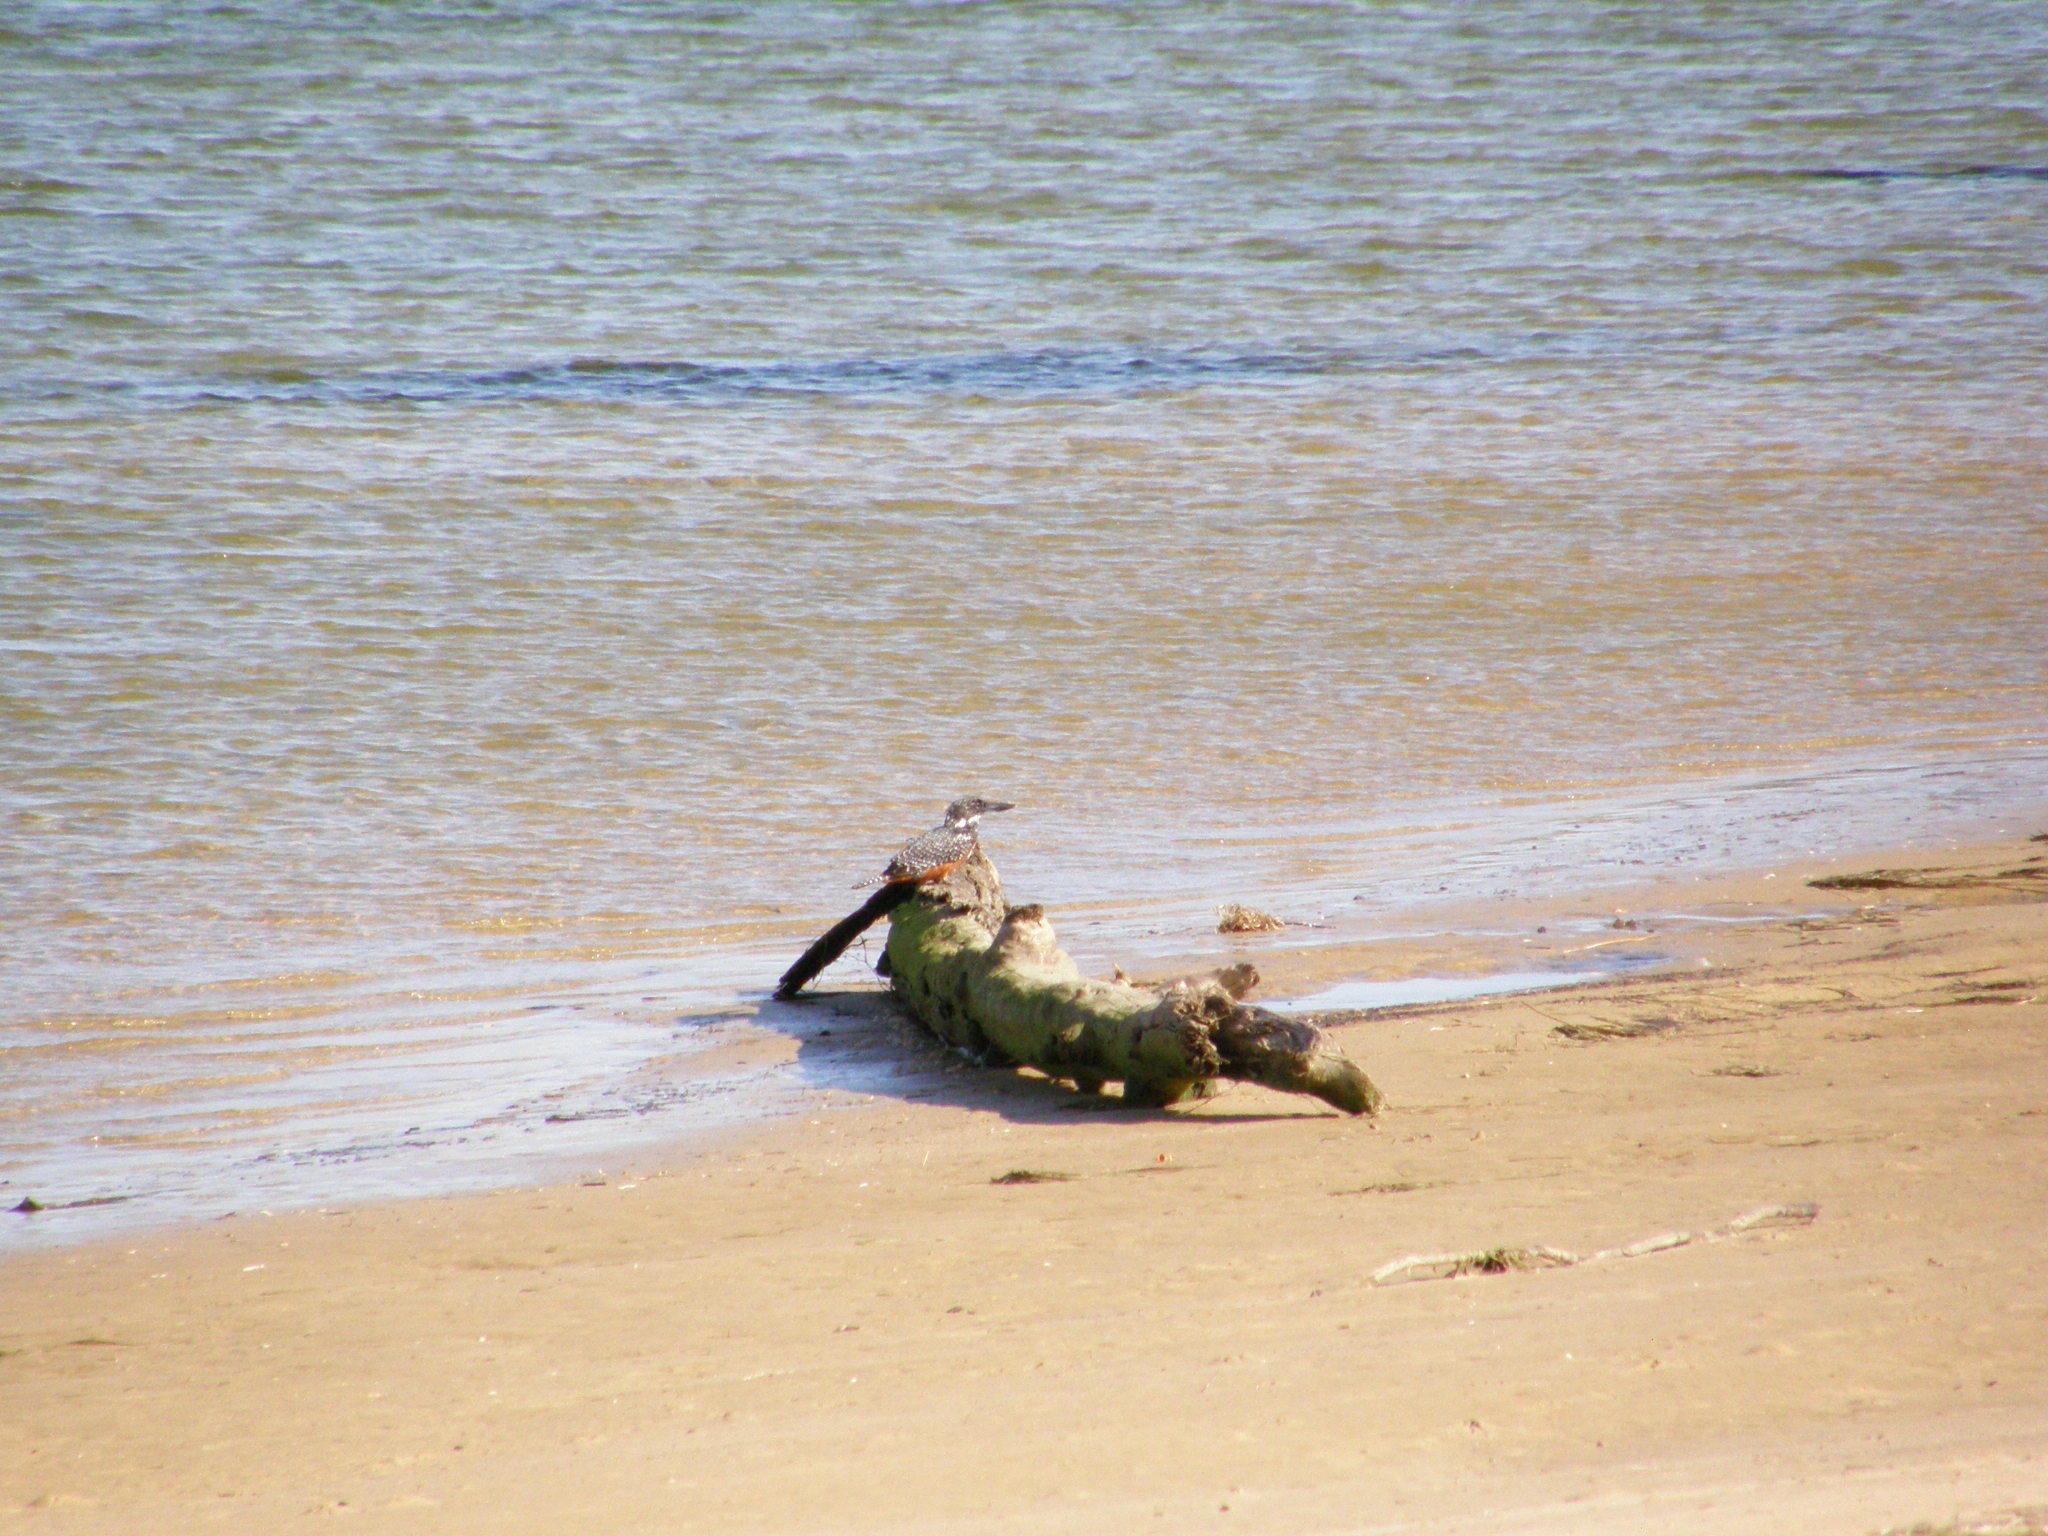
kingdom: Animalia
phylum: Chordata
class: Aves
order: Coraciiformes
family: Alcedinidae
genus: Megaceryle
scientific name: Megaceryle maxima
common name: Giant kingfisher
